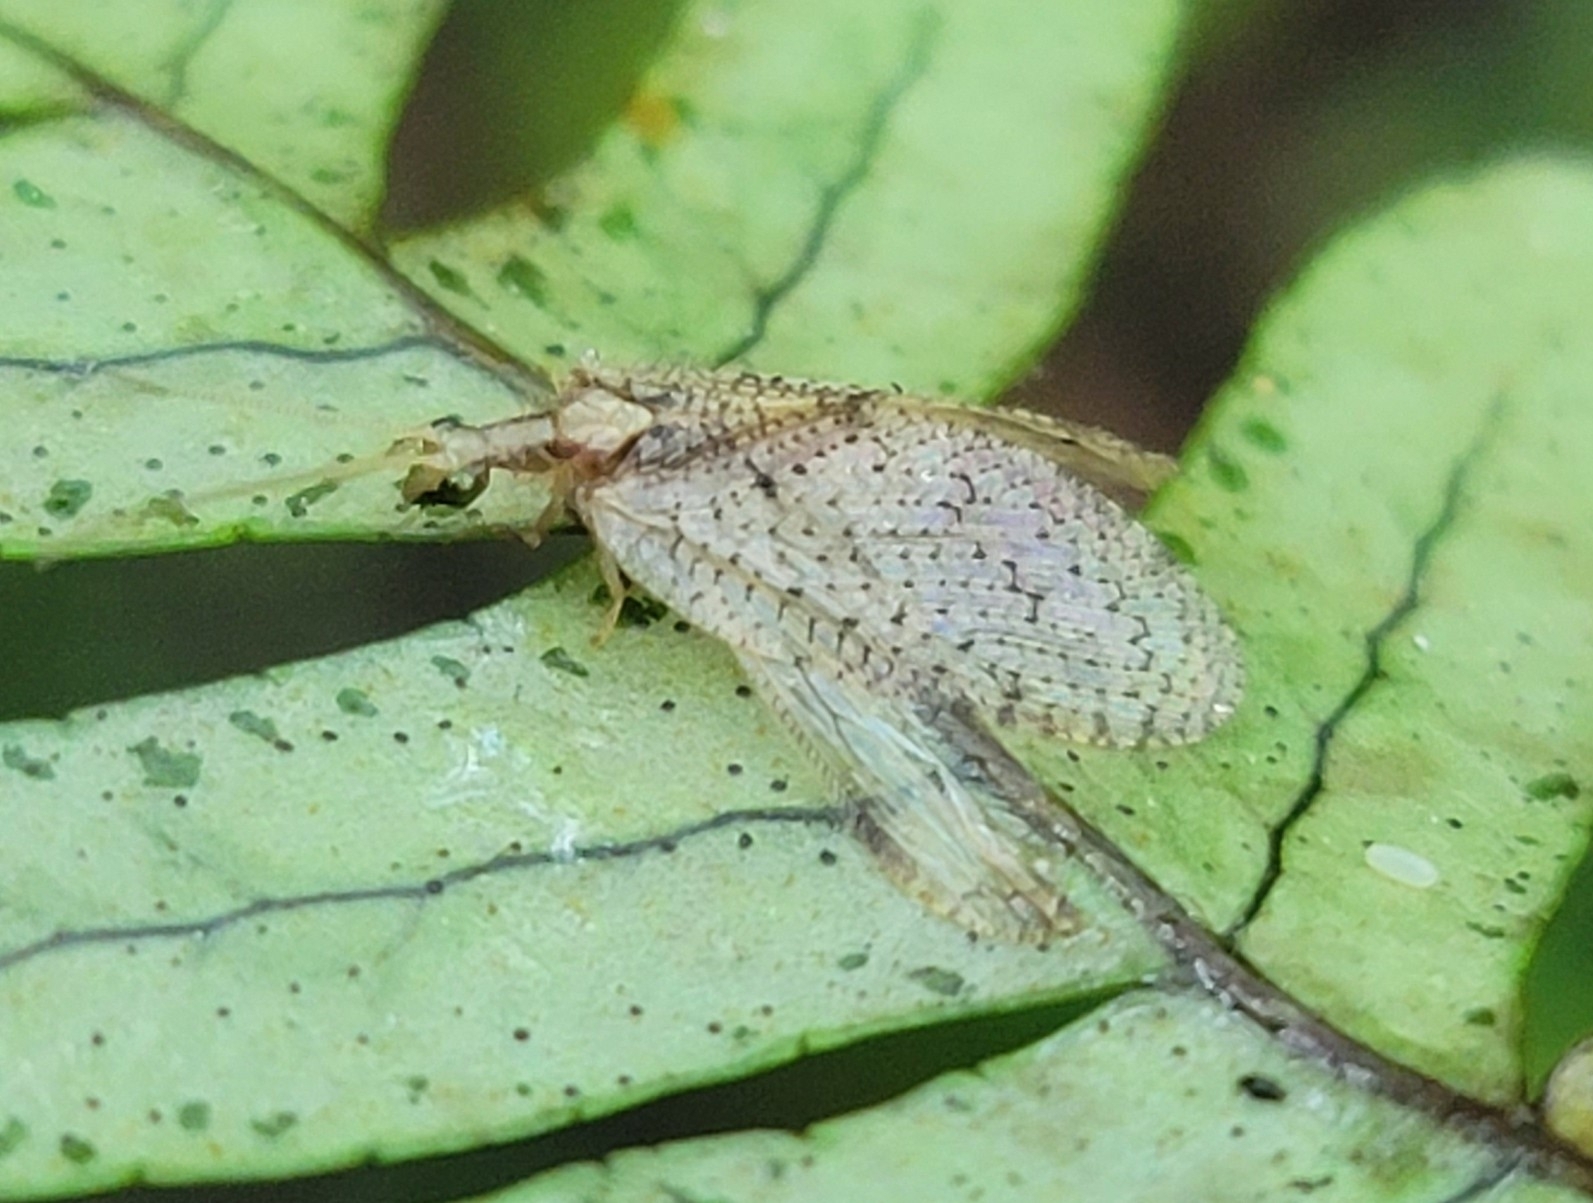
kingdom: Animalia
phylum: Arthropoda
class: Insecta
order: Neuroptera
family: Hemerobiidae
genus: Hemerobius
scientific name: Hemerobius humulinus
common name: Humulin brown lacewing
